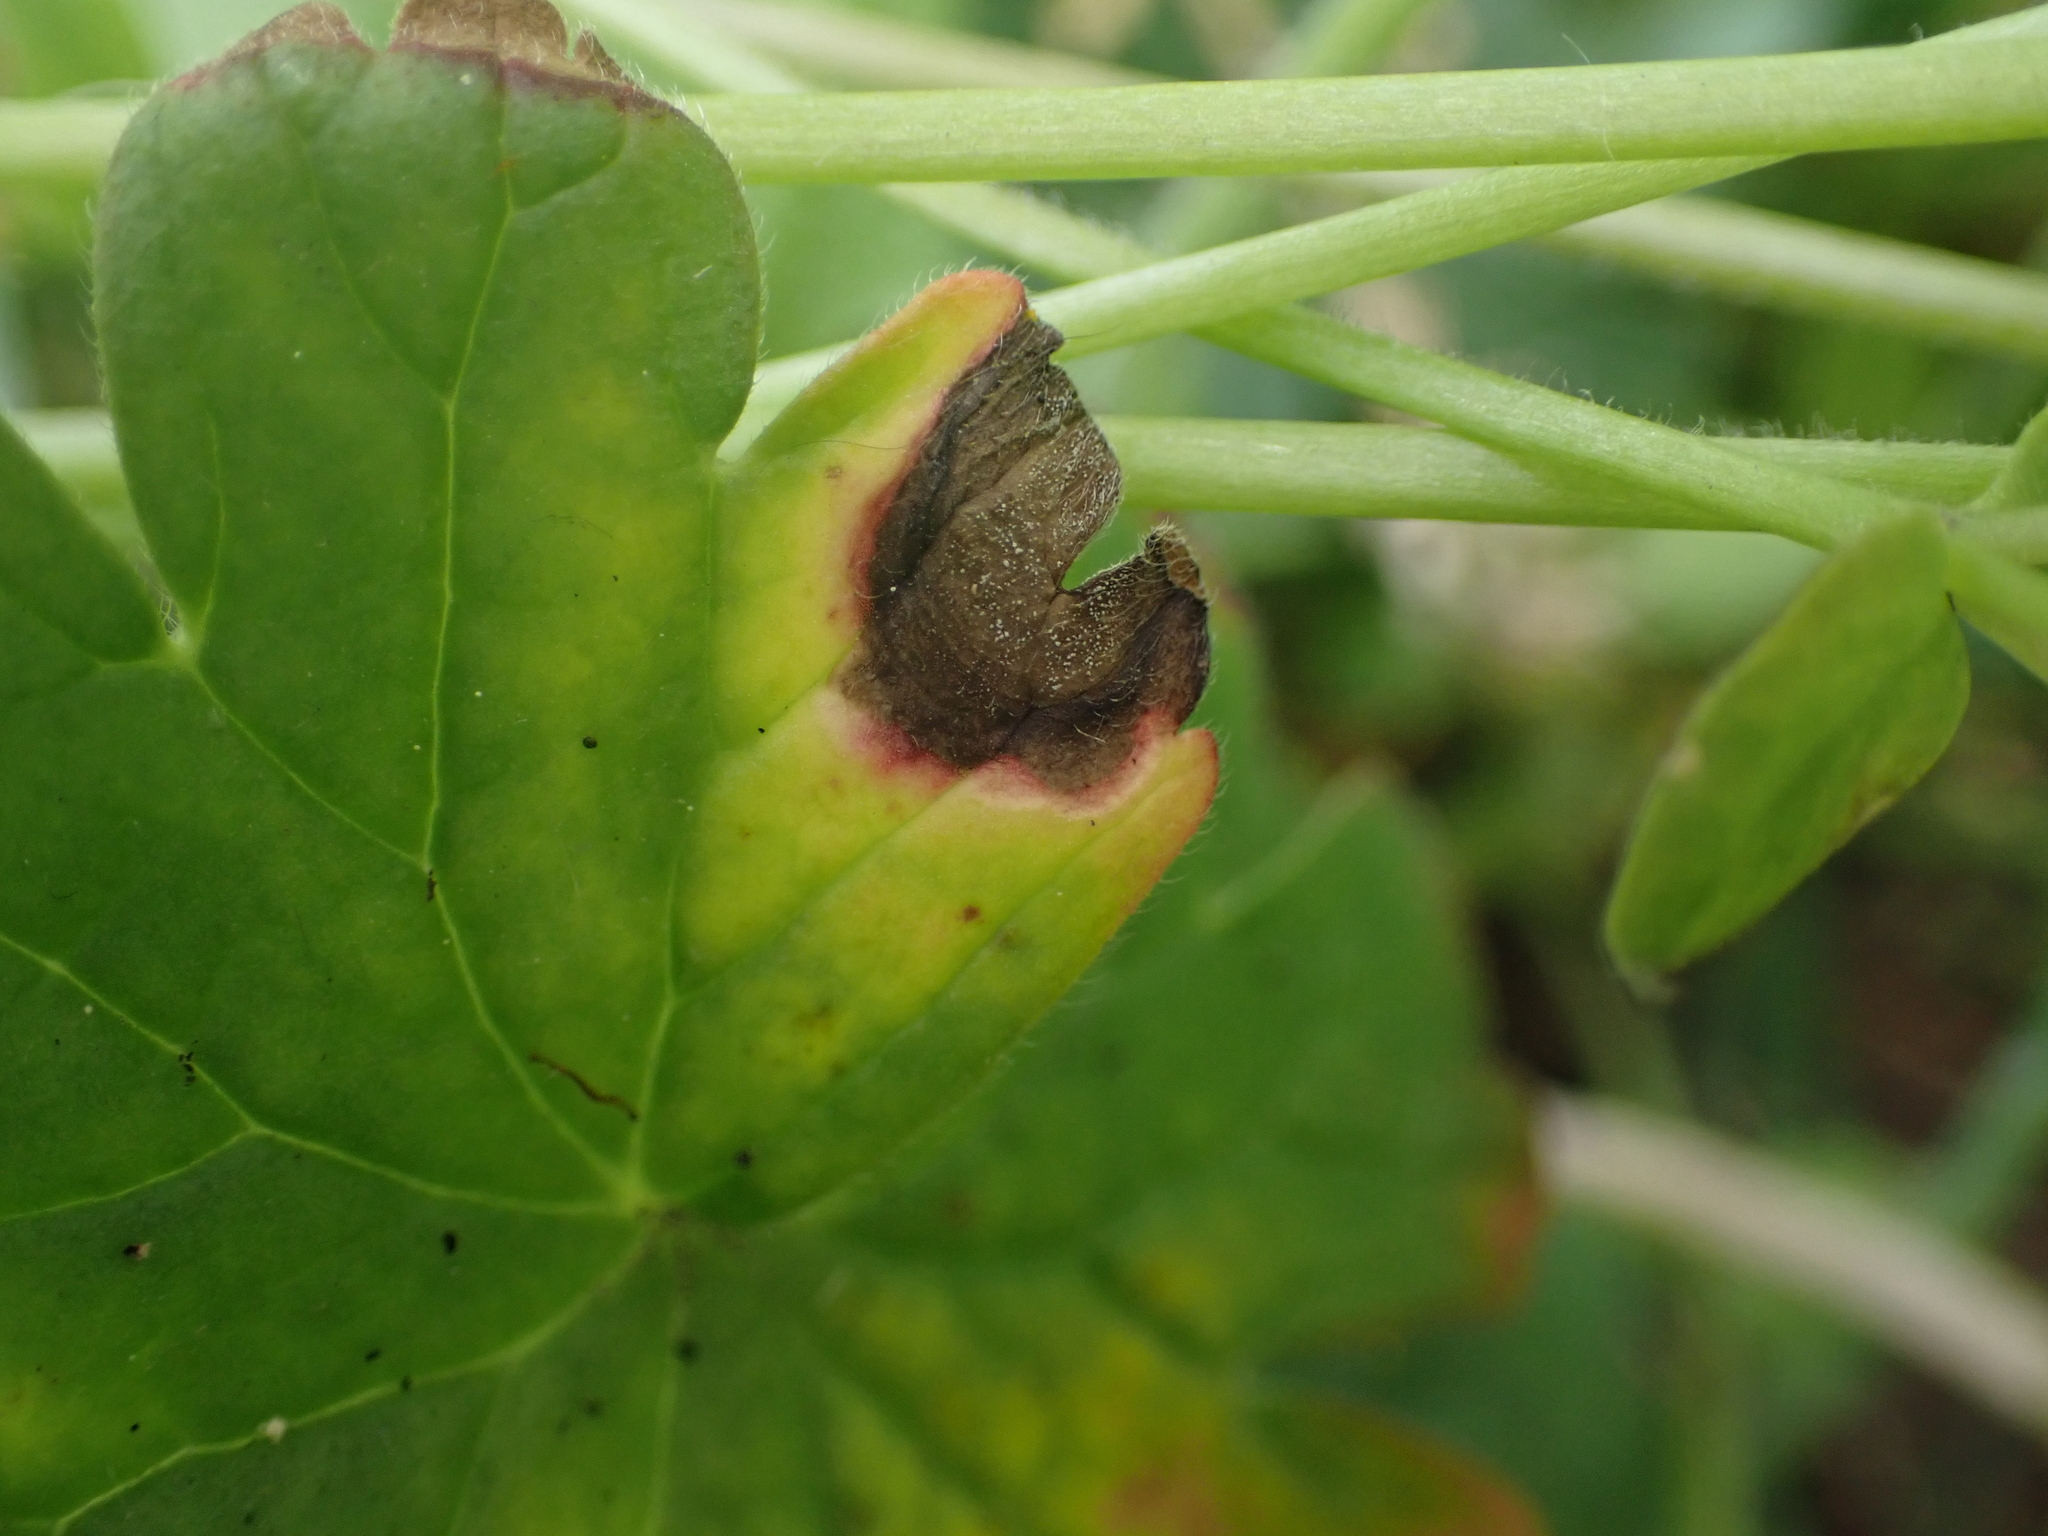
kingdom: Fungi
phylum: Ascomycota
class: Dothideomycetes
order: Mycosphaerellales
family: Mycosphaerellaceae
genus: Ramularia
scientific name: Ramularia geranii
